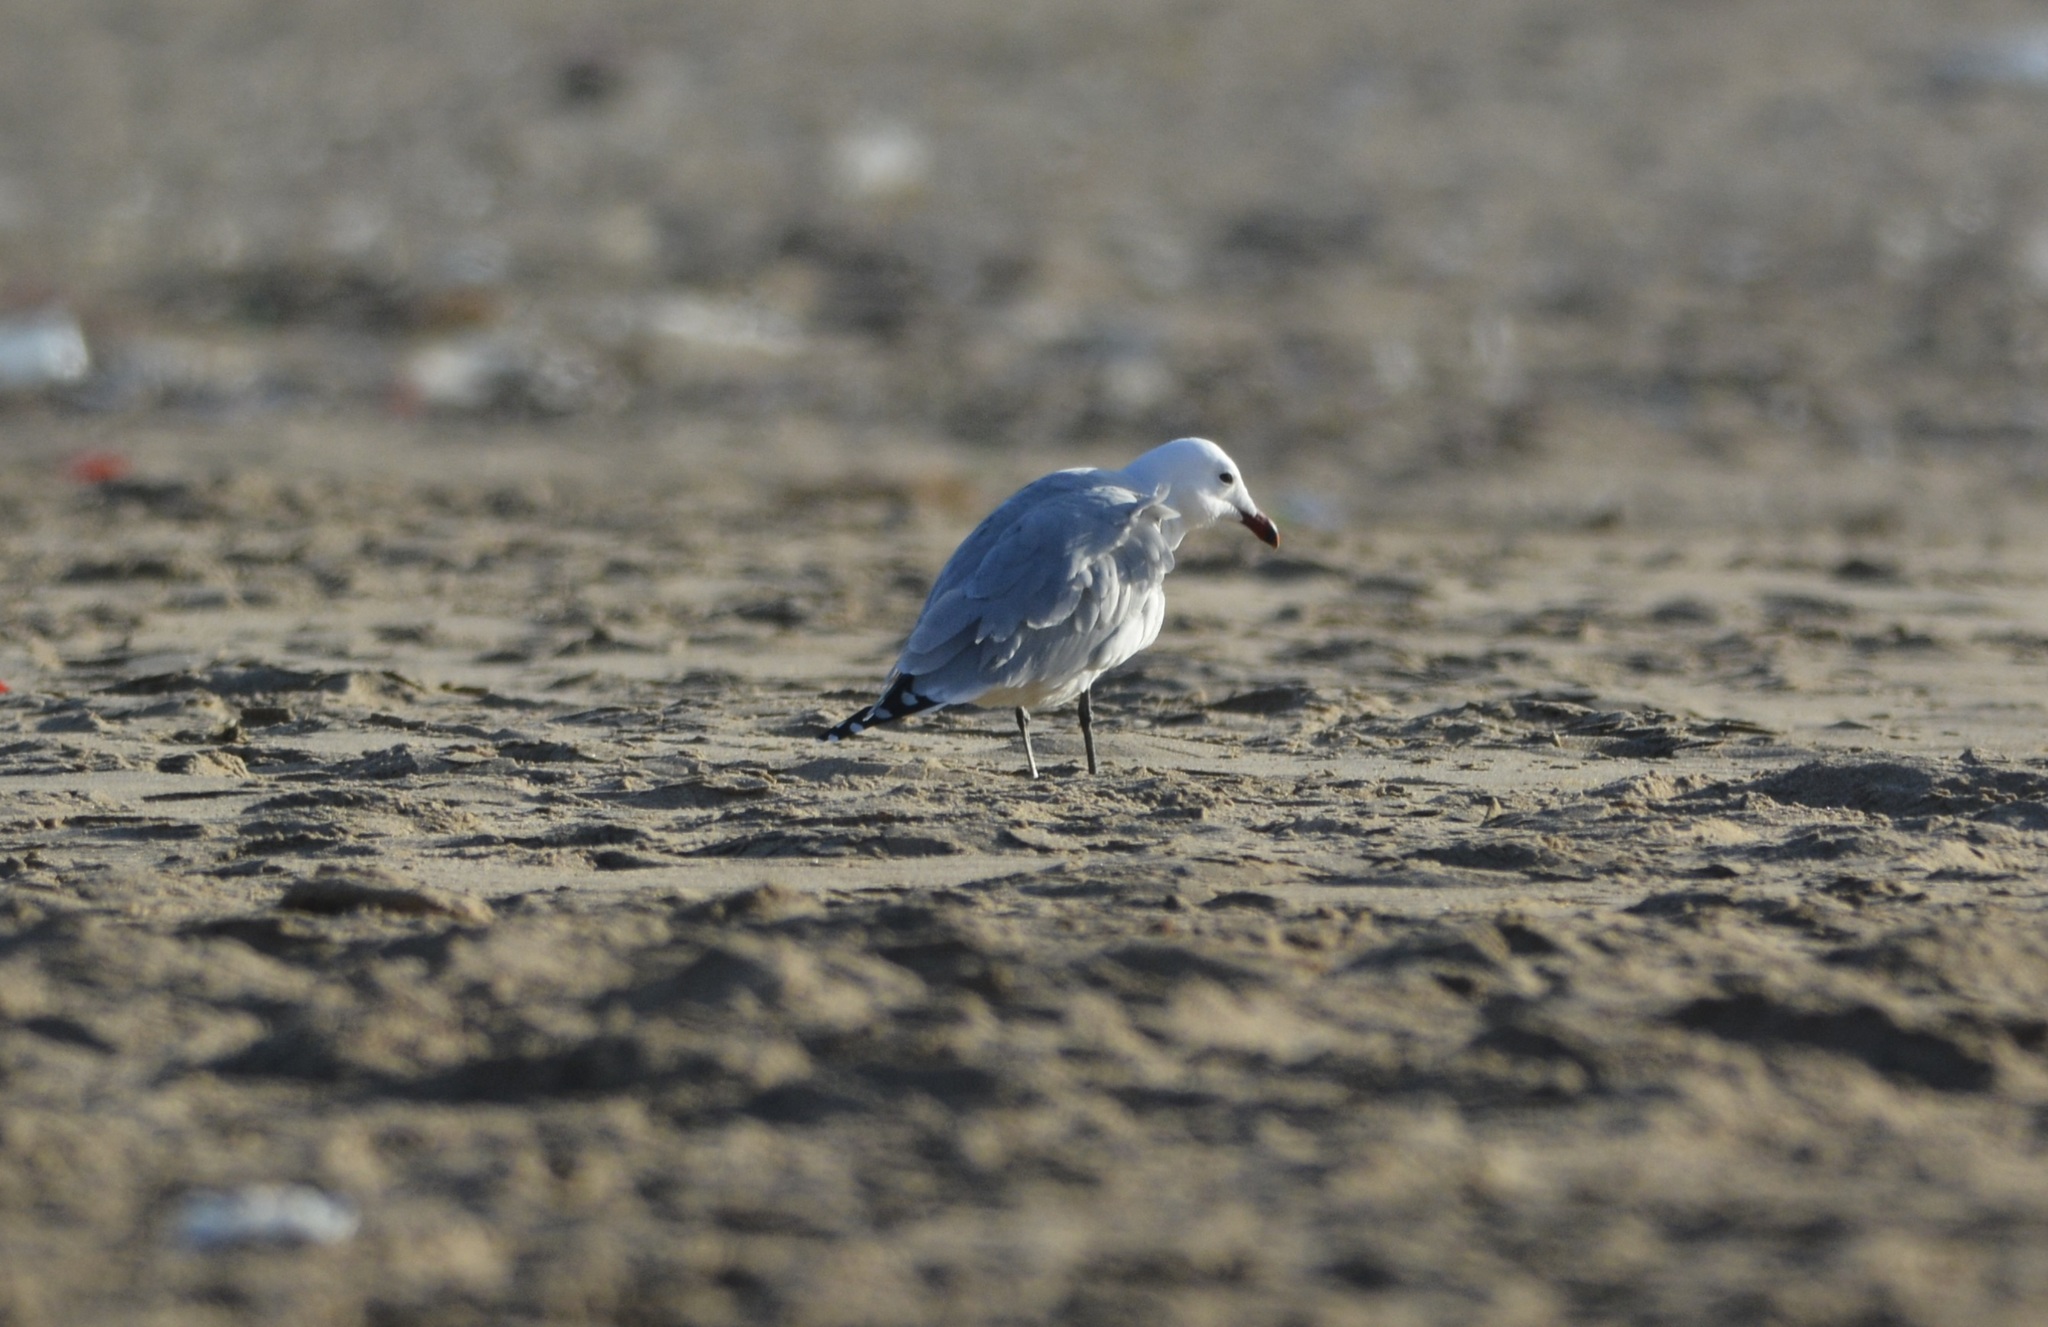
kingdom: Animalia
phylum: Chordata
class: Aves
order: Charadriiformes
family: Laridae
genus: Ichthyaetus
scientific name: Ichthyaetus audouinii
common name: Audouin's gull
